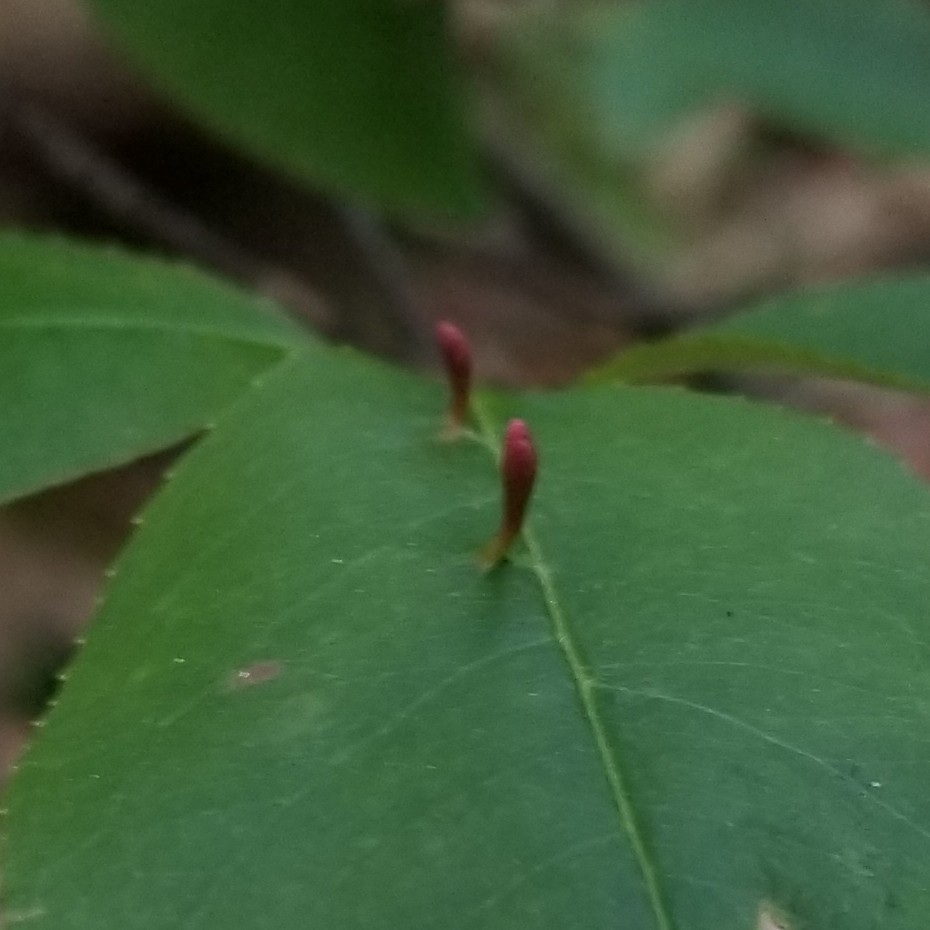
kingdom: Animalia
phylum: Arthropoda
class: Arachnida
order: Trombidiformes
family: Eriophyidae
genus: Eriophyes
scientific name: Eriophyes
